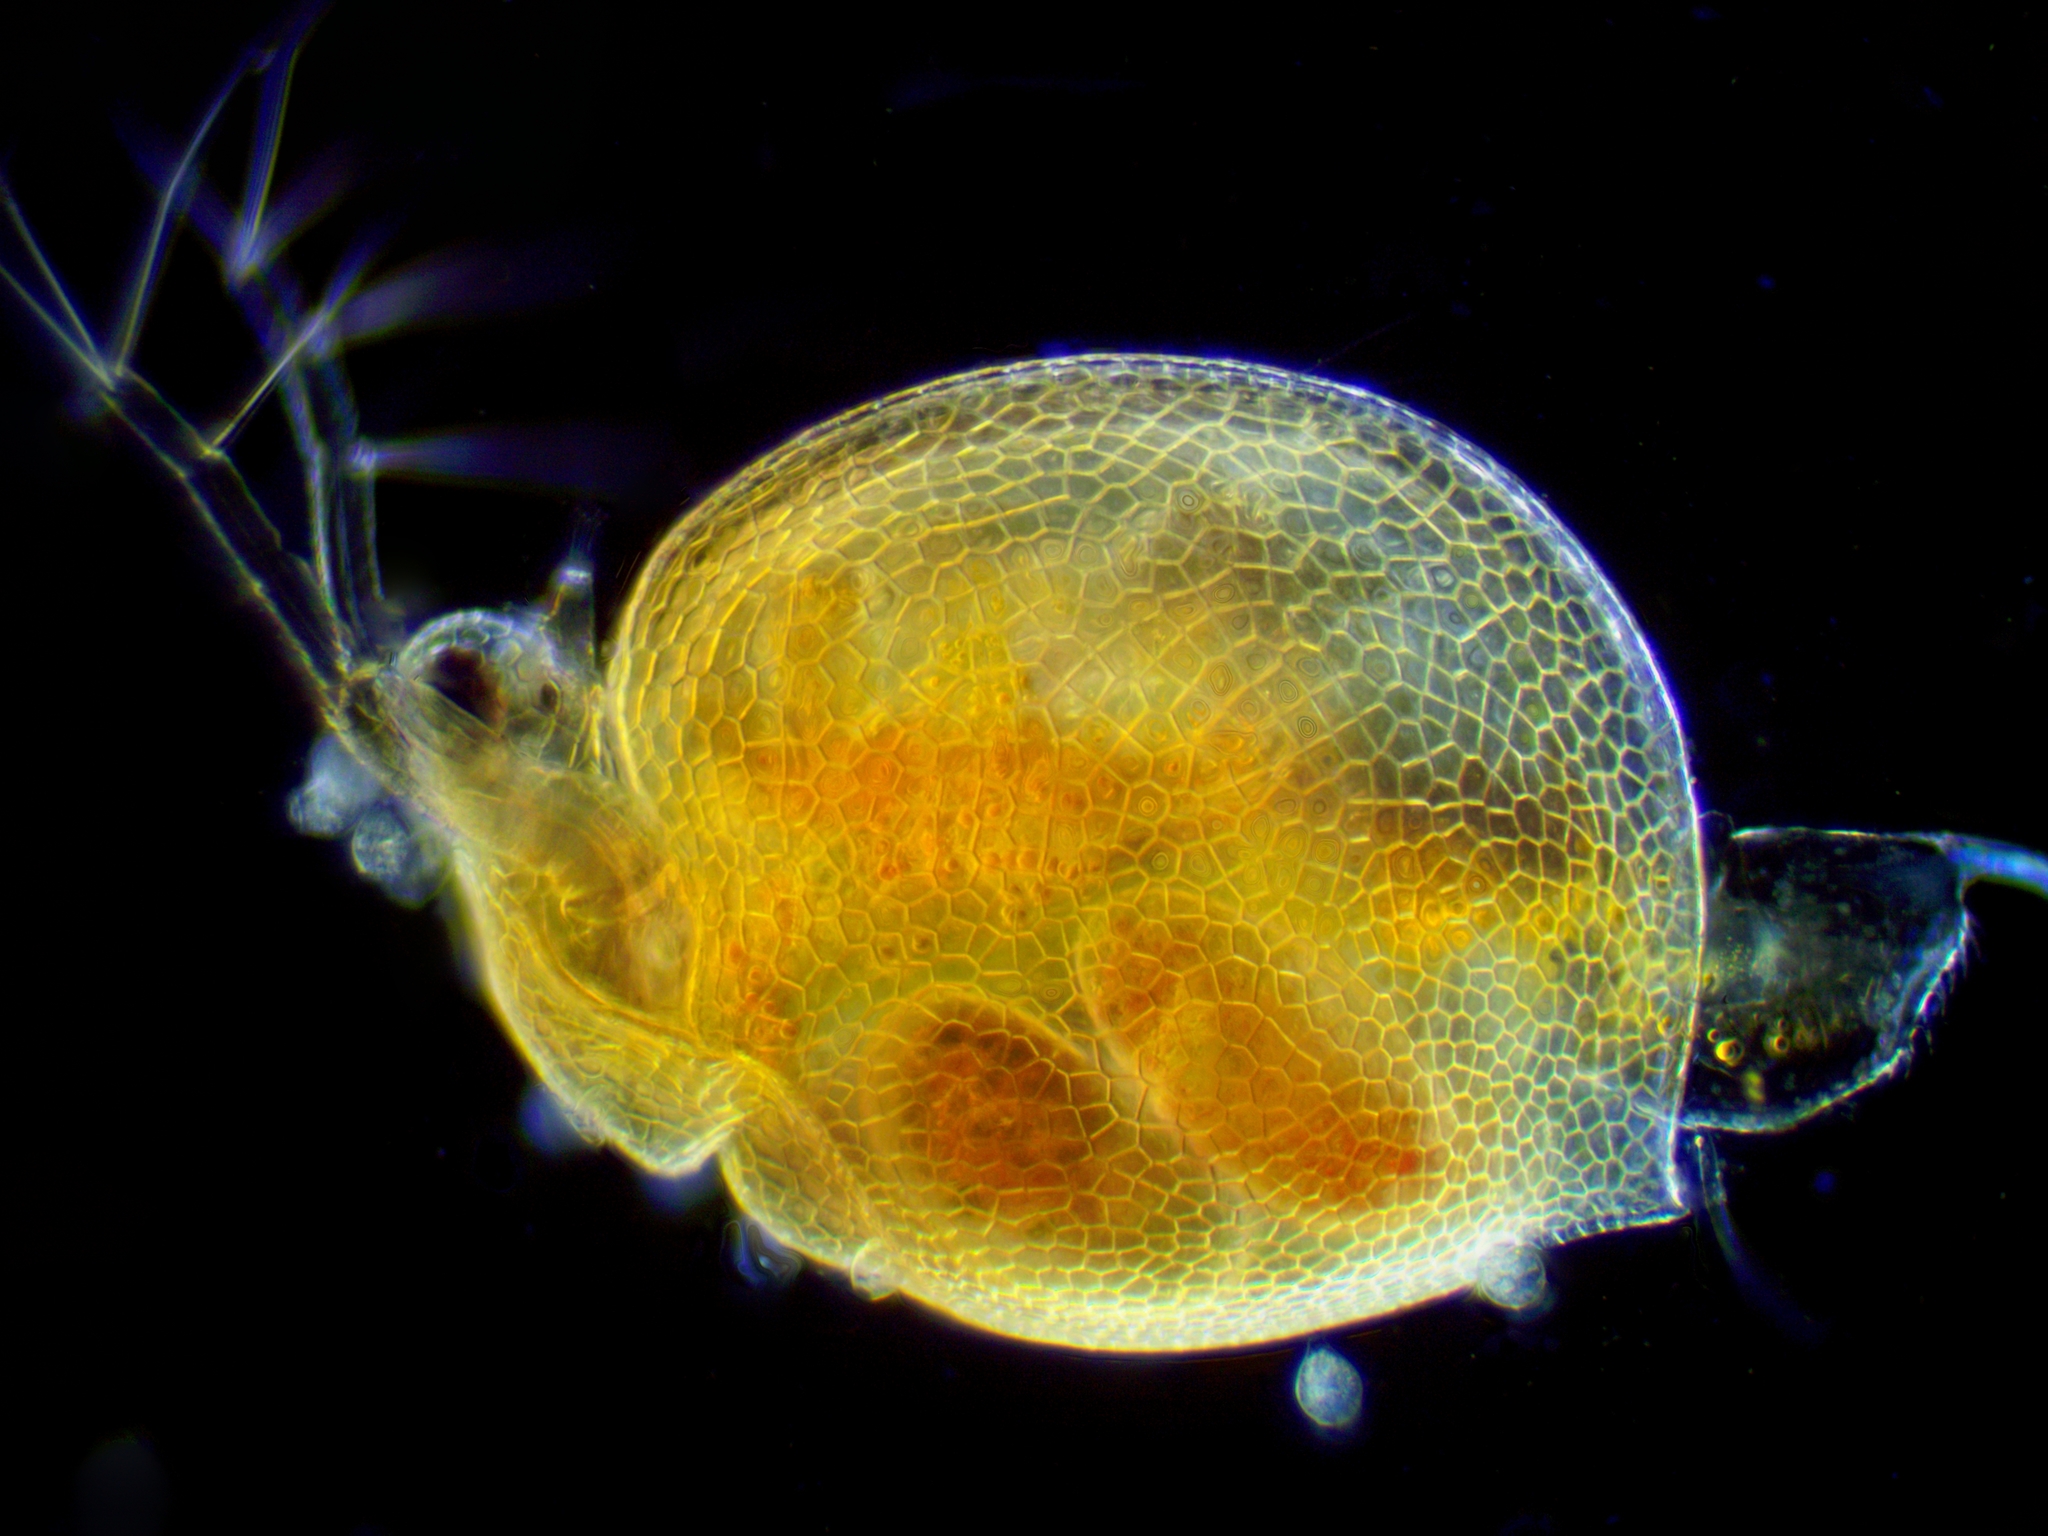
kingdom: Animalia
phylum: Arthropoda
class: Branchiopoda
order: Diplostraca
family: Daphniidae
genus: Ceriodaphnia
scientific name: Ceriodaphnia laticaudata
